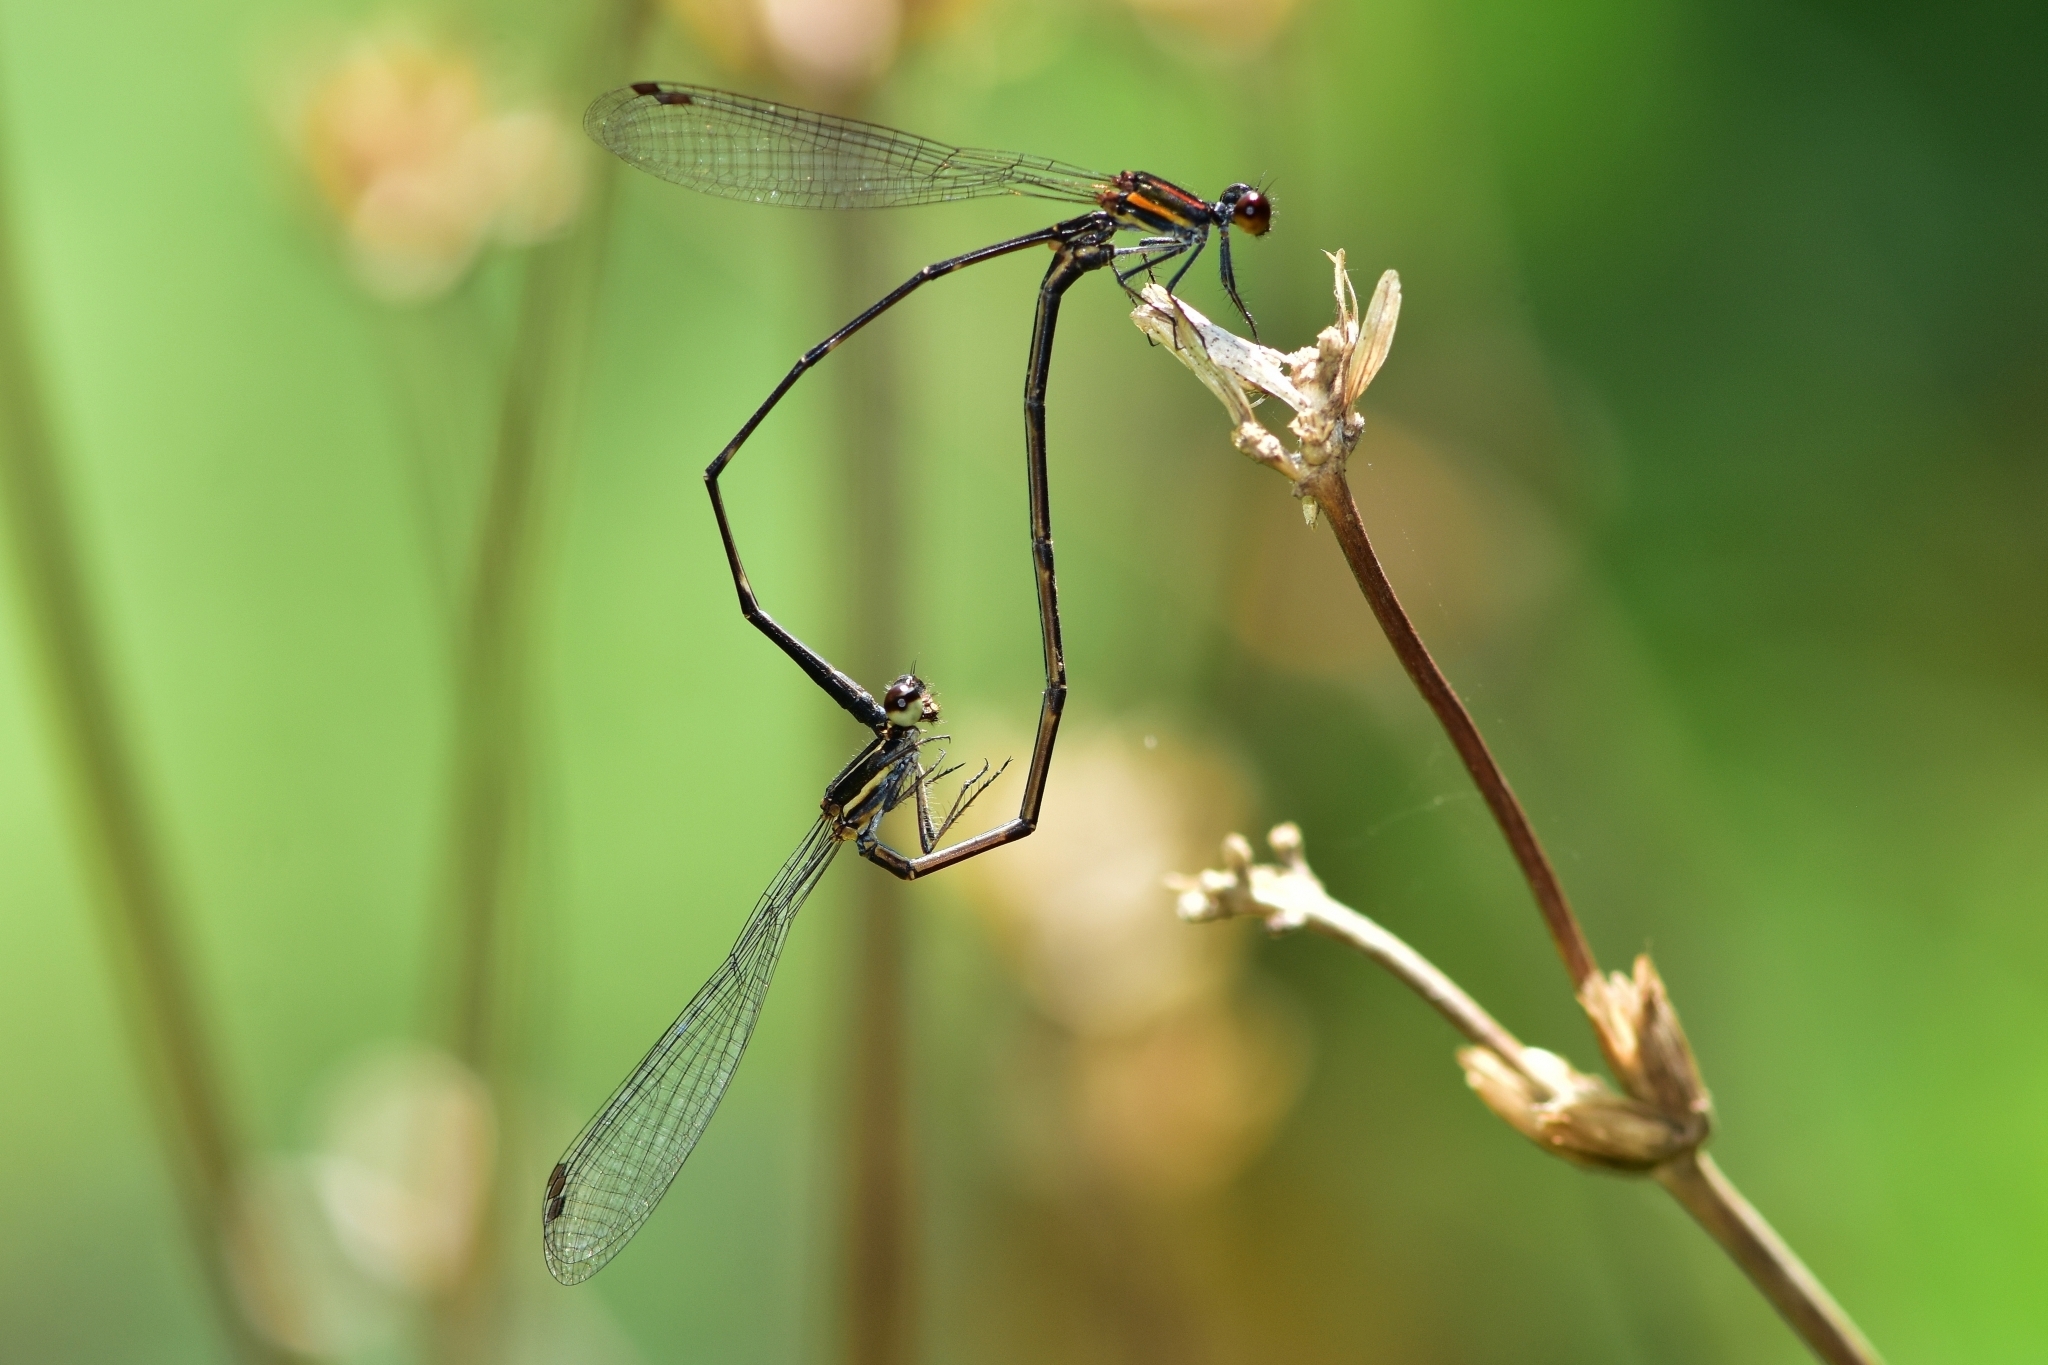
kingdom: Animalia
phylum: Arthropoda
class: Insecta
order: Odonata
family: Platycnemididae
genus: Prodasineura
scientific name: Prodasineura verticalis
